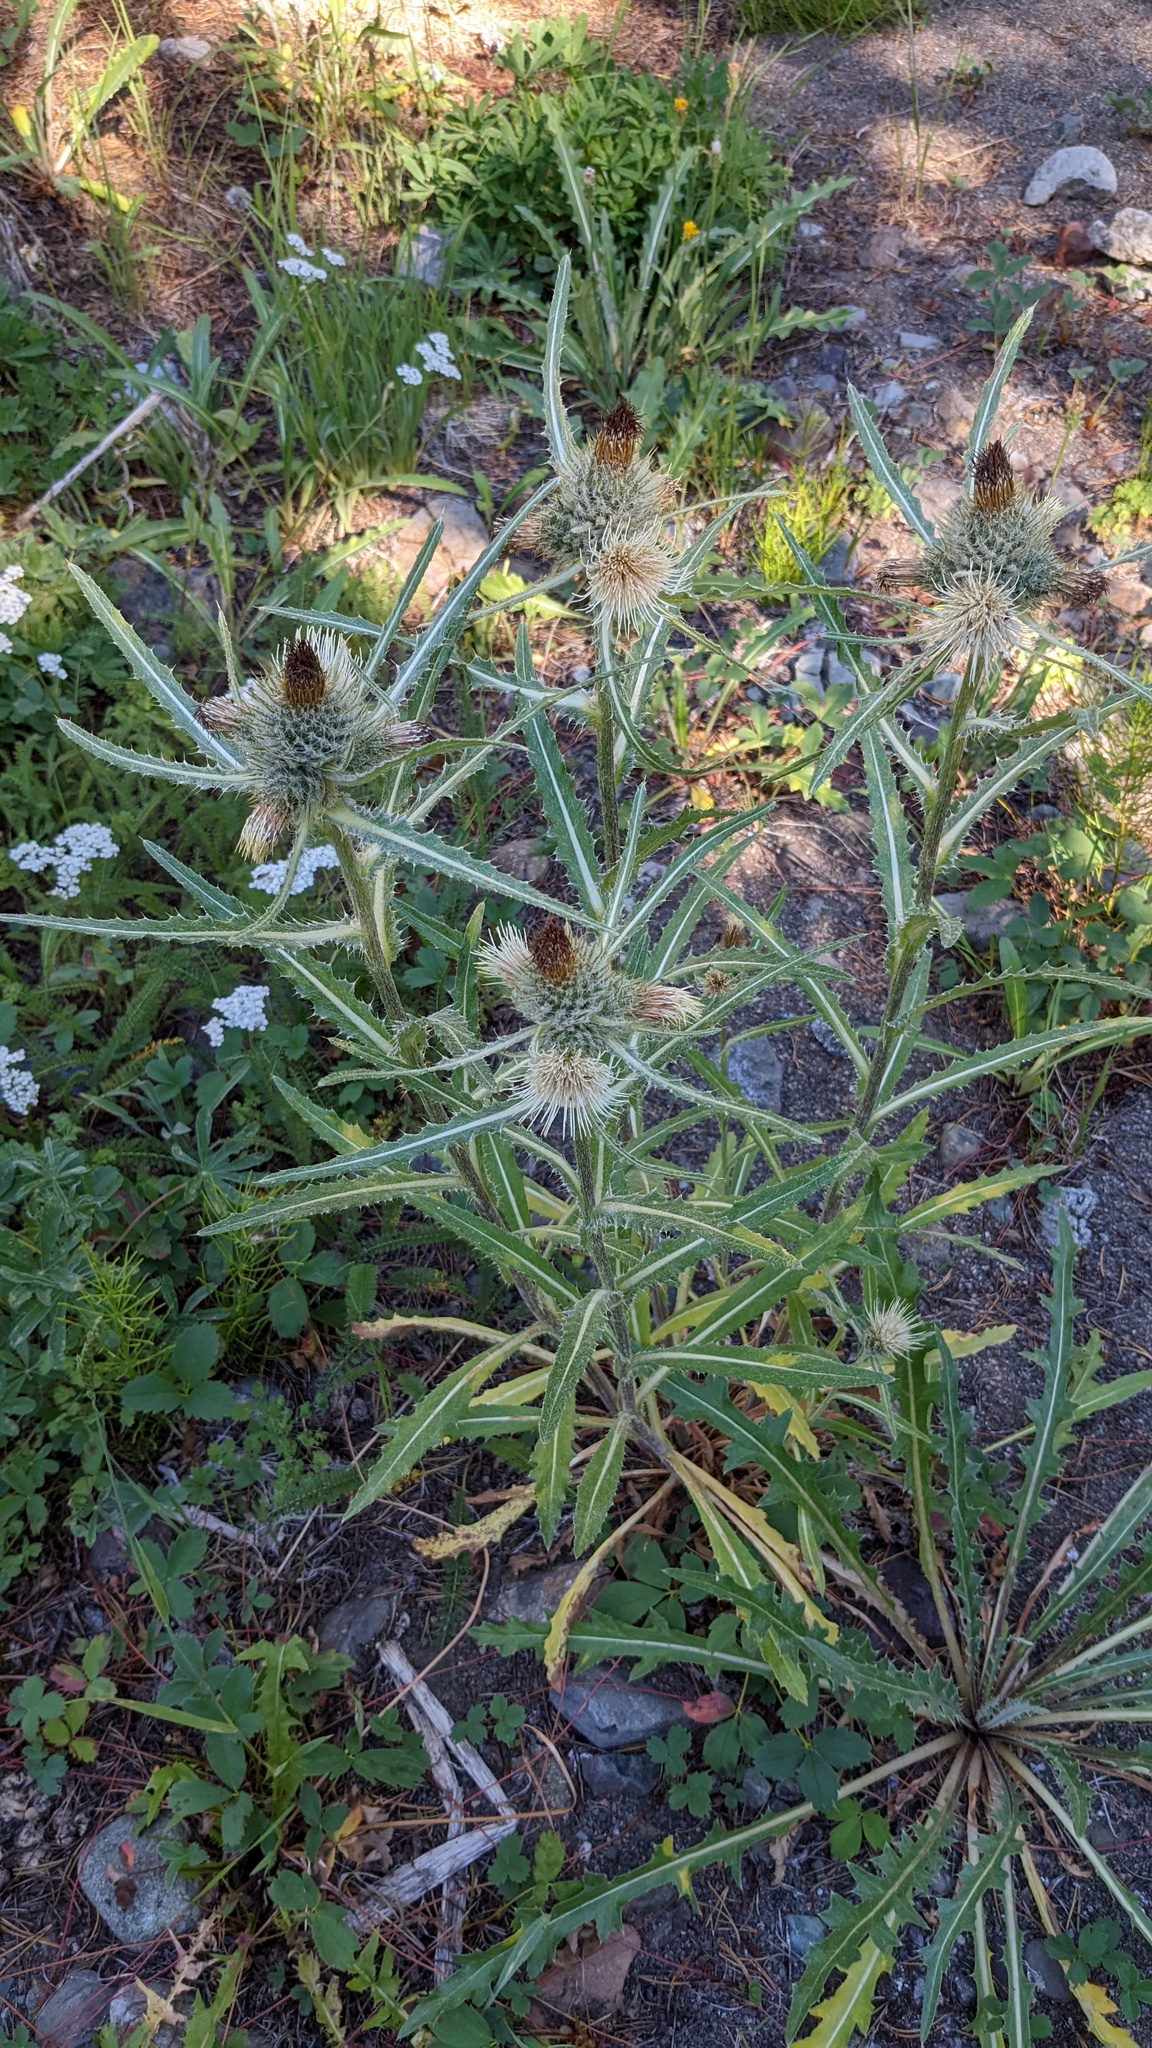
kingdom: Plantae
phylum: Tracheophyta
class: Magnoliopsida
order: Asterales
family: Asteraceae
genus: Cirsium
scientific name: Cirsium hookerianum
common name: Hooker's thistle
